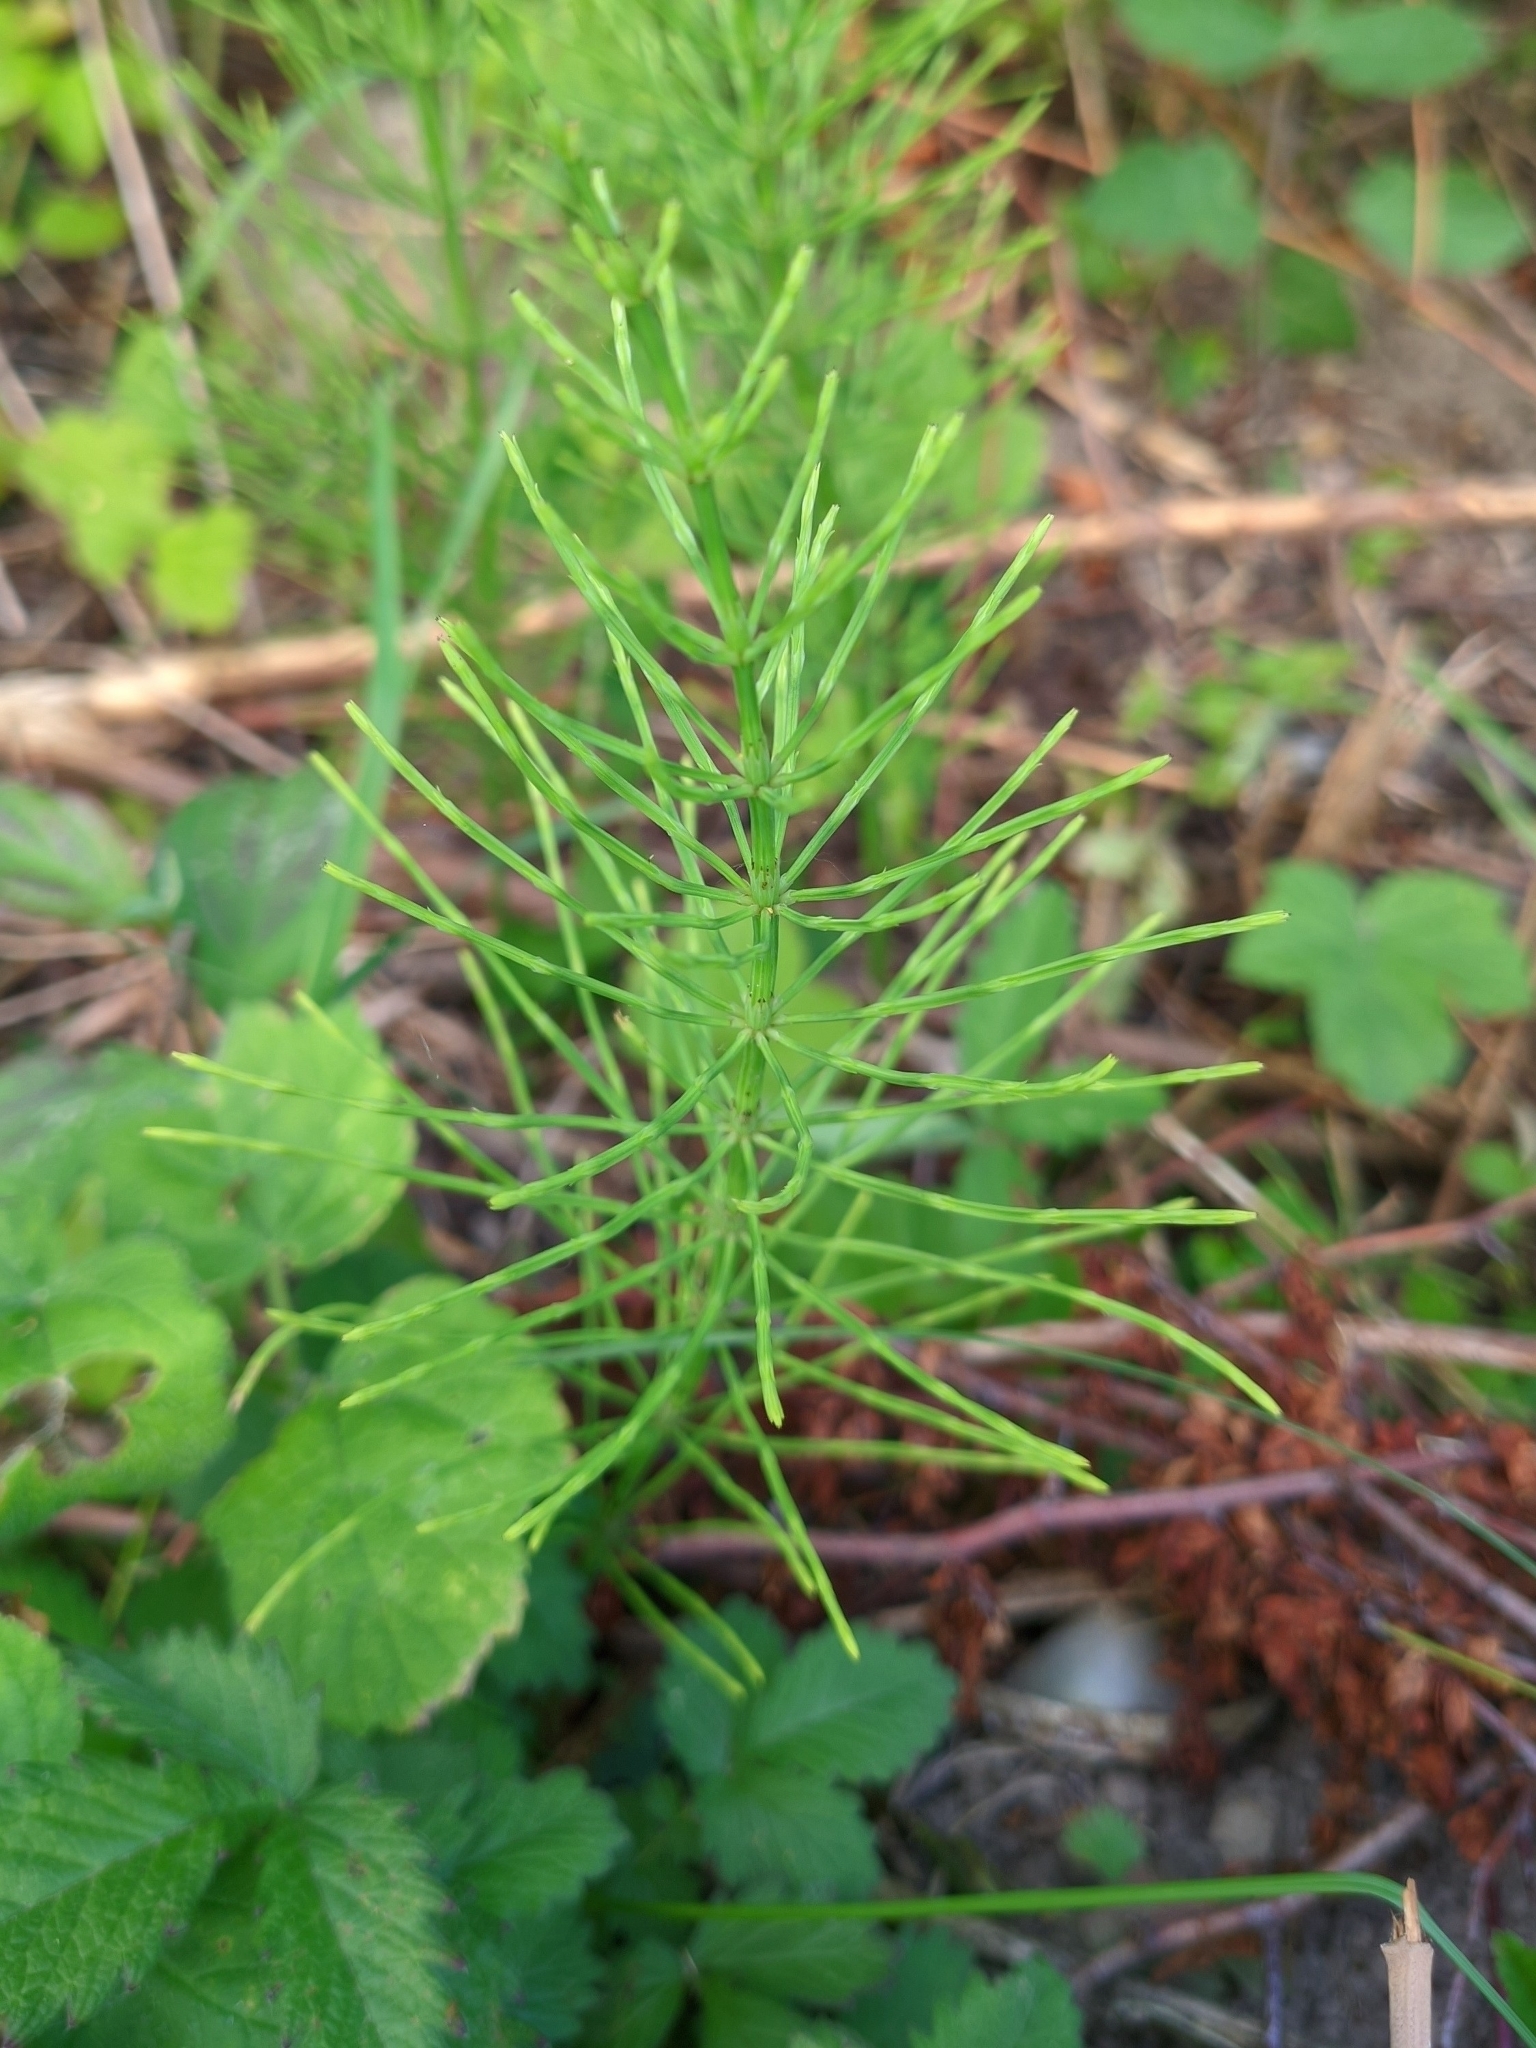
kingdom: Plantae
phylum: Tracheophyta
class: Polypodiopsida
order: Equisetales
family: Equisetaceae
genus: Equisetum
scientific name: Equisetum arvense
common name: Field horsetail
